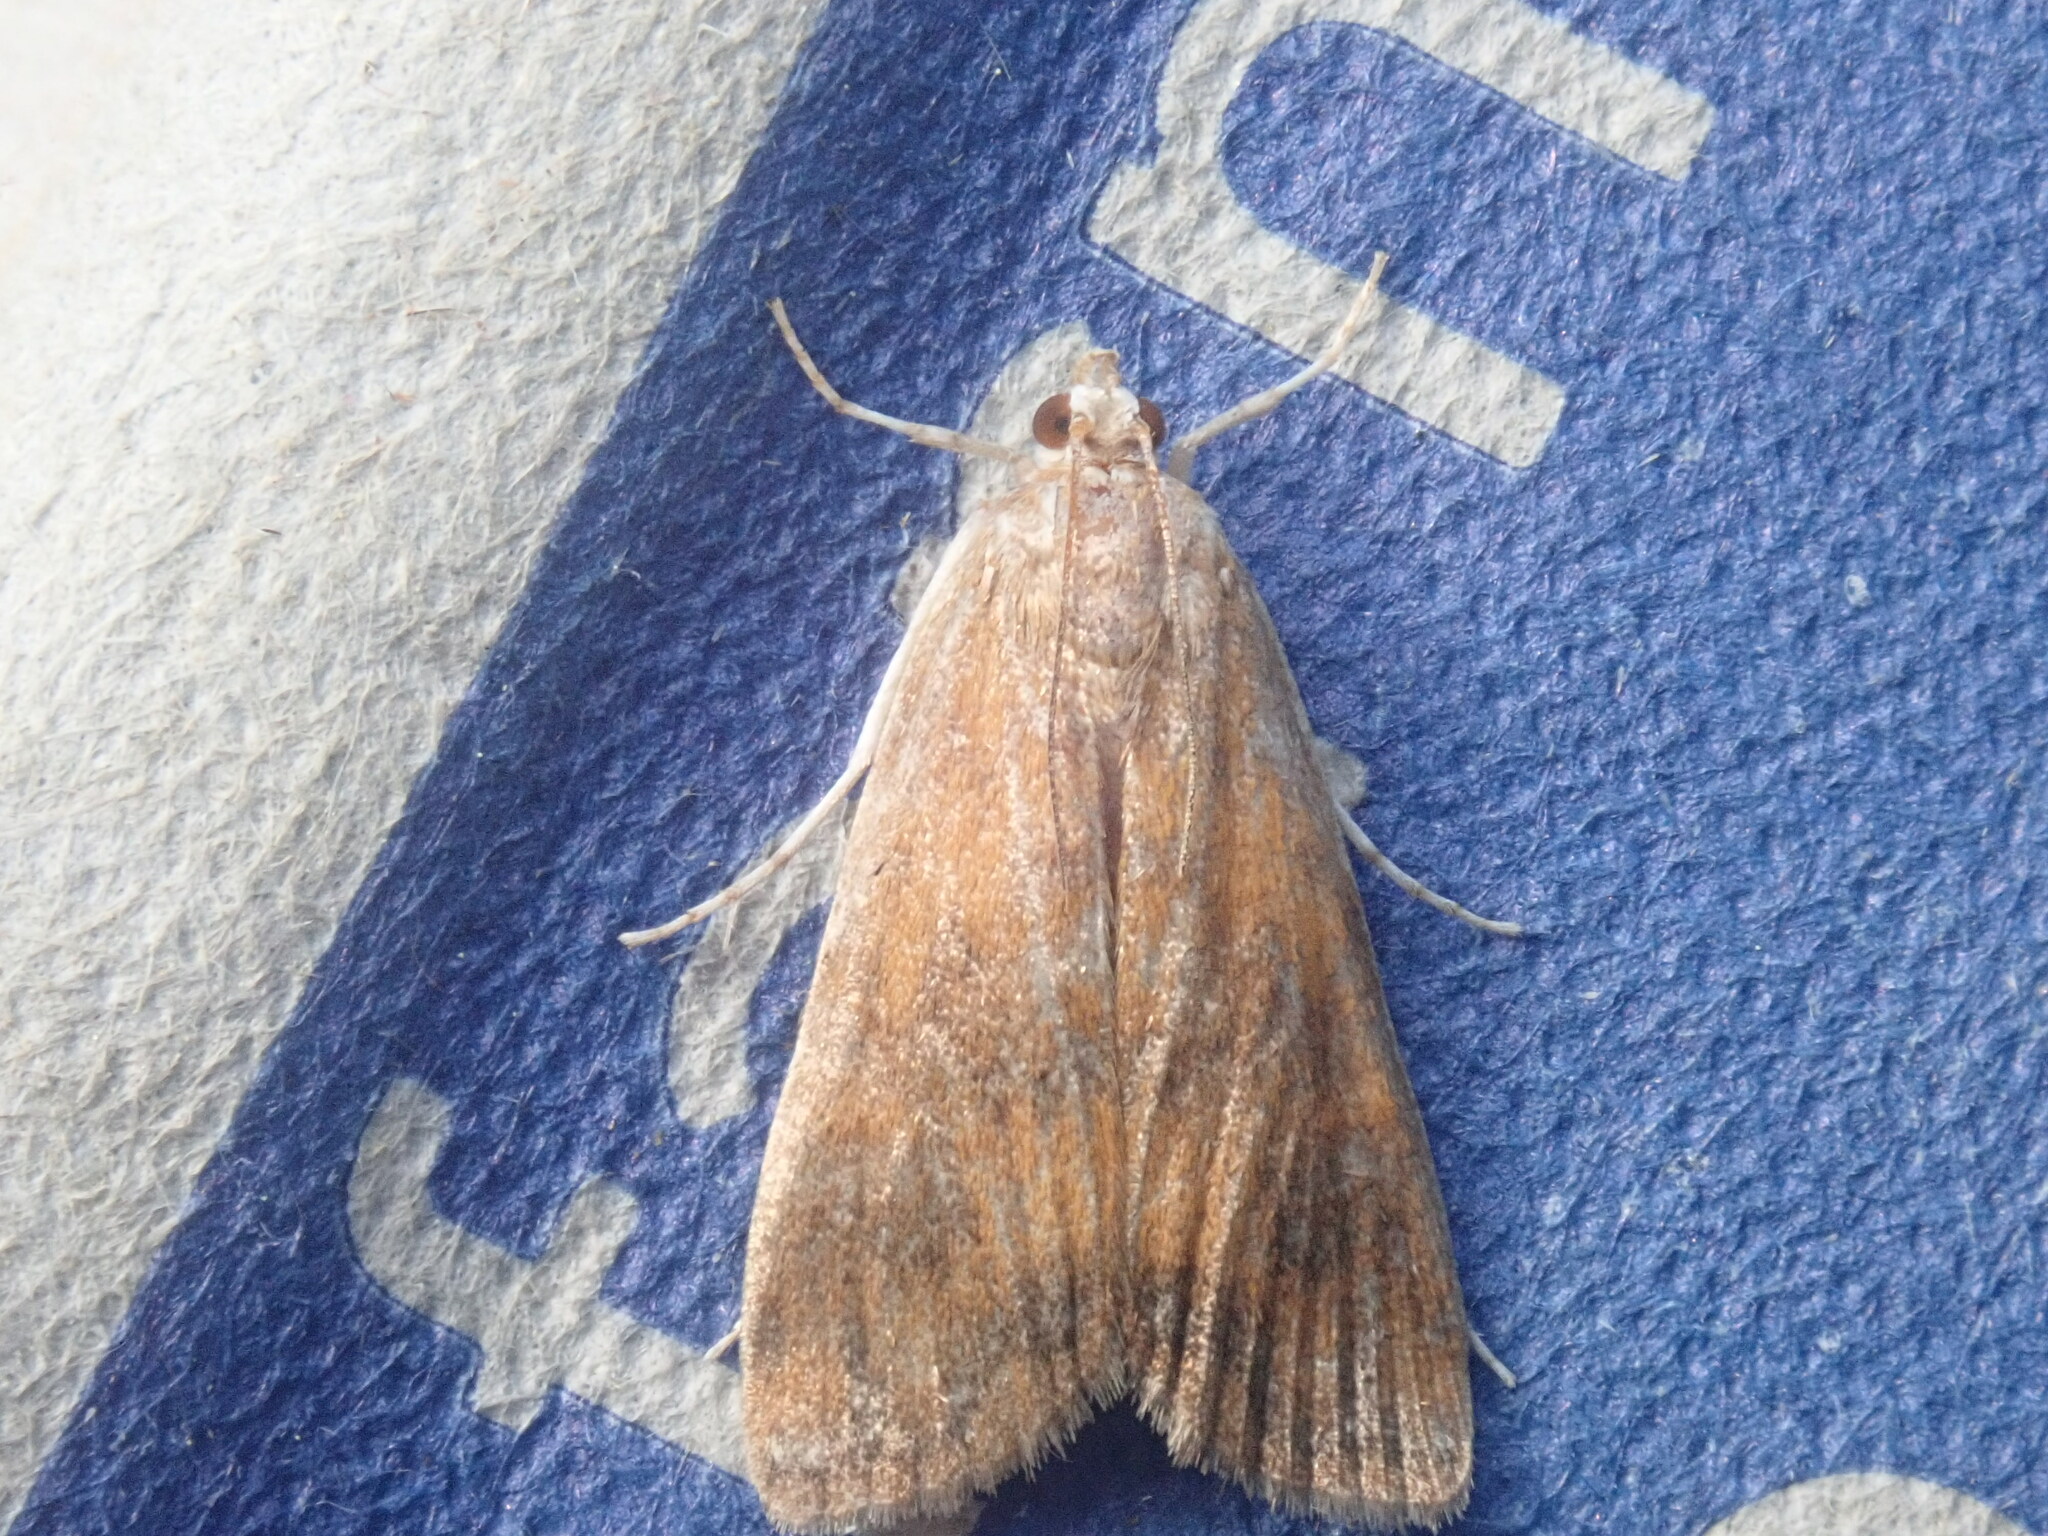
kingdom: Animalia
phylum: Arthropoda
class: Insecta
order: Lepidoptera
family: Crambidae
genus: Elophila
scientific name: Elophila gyralis
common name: Waterlily borer moth
